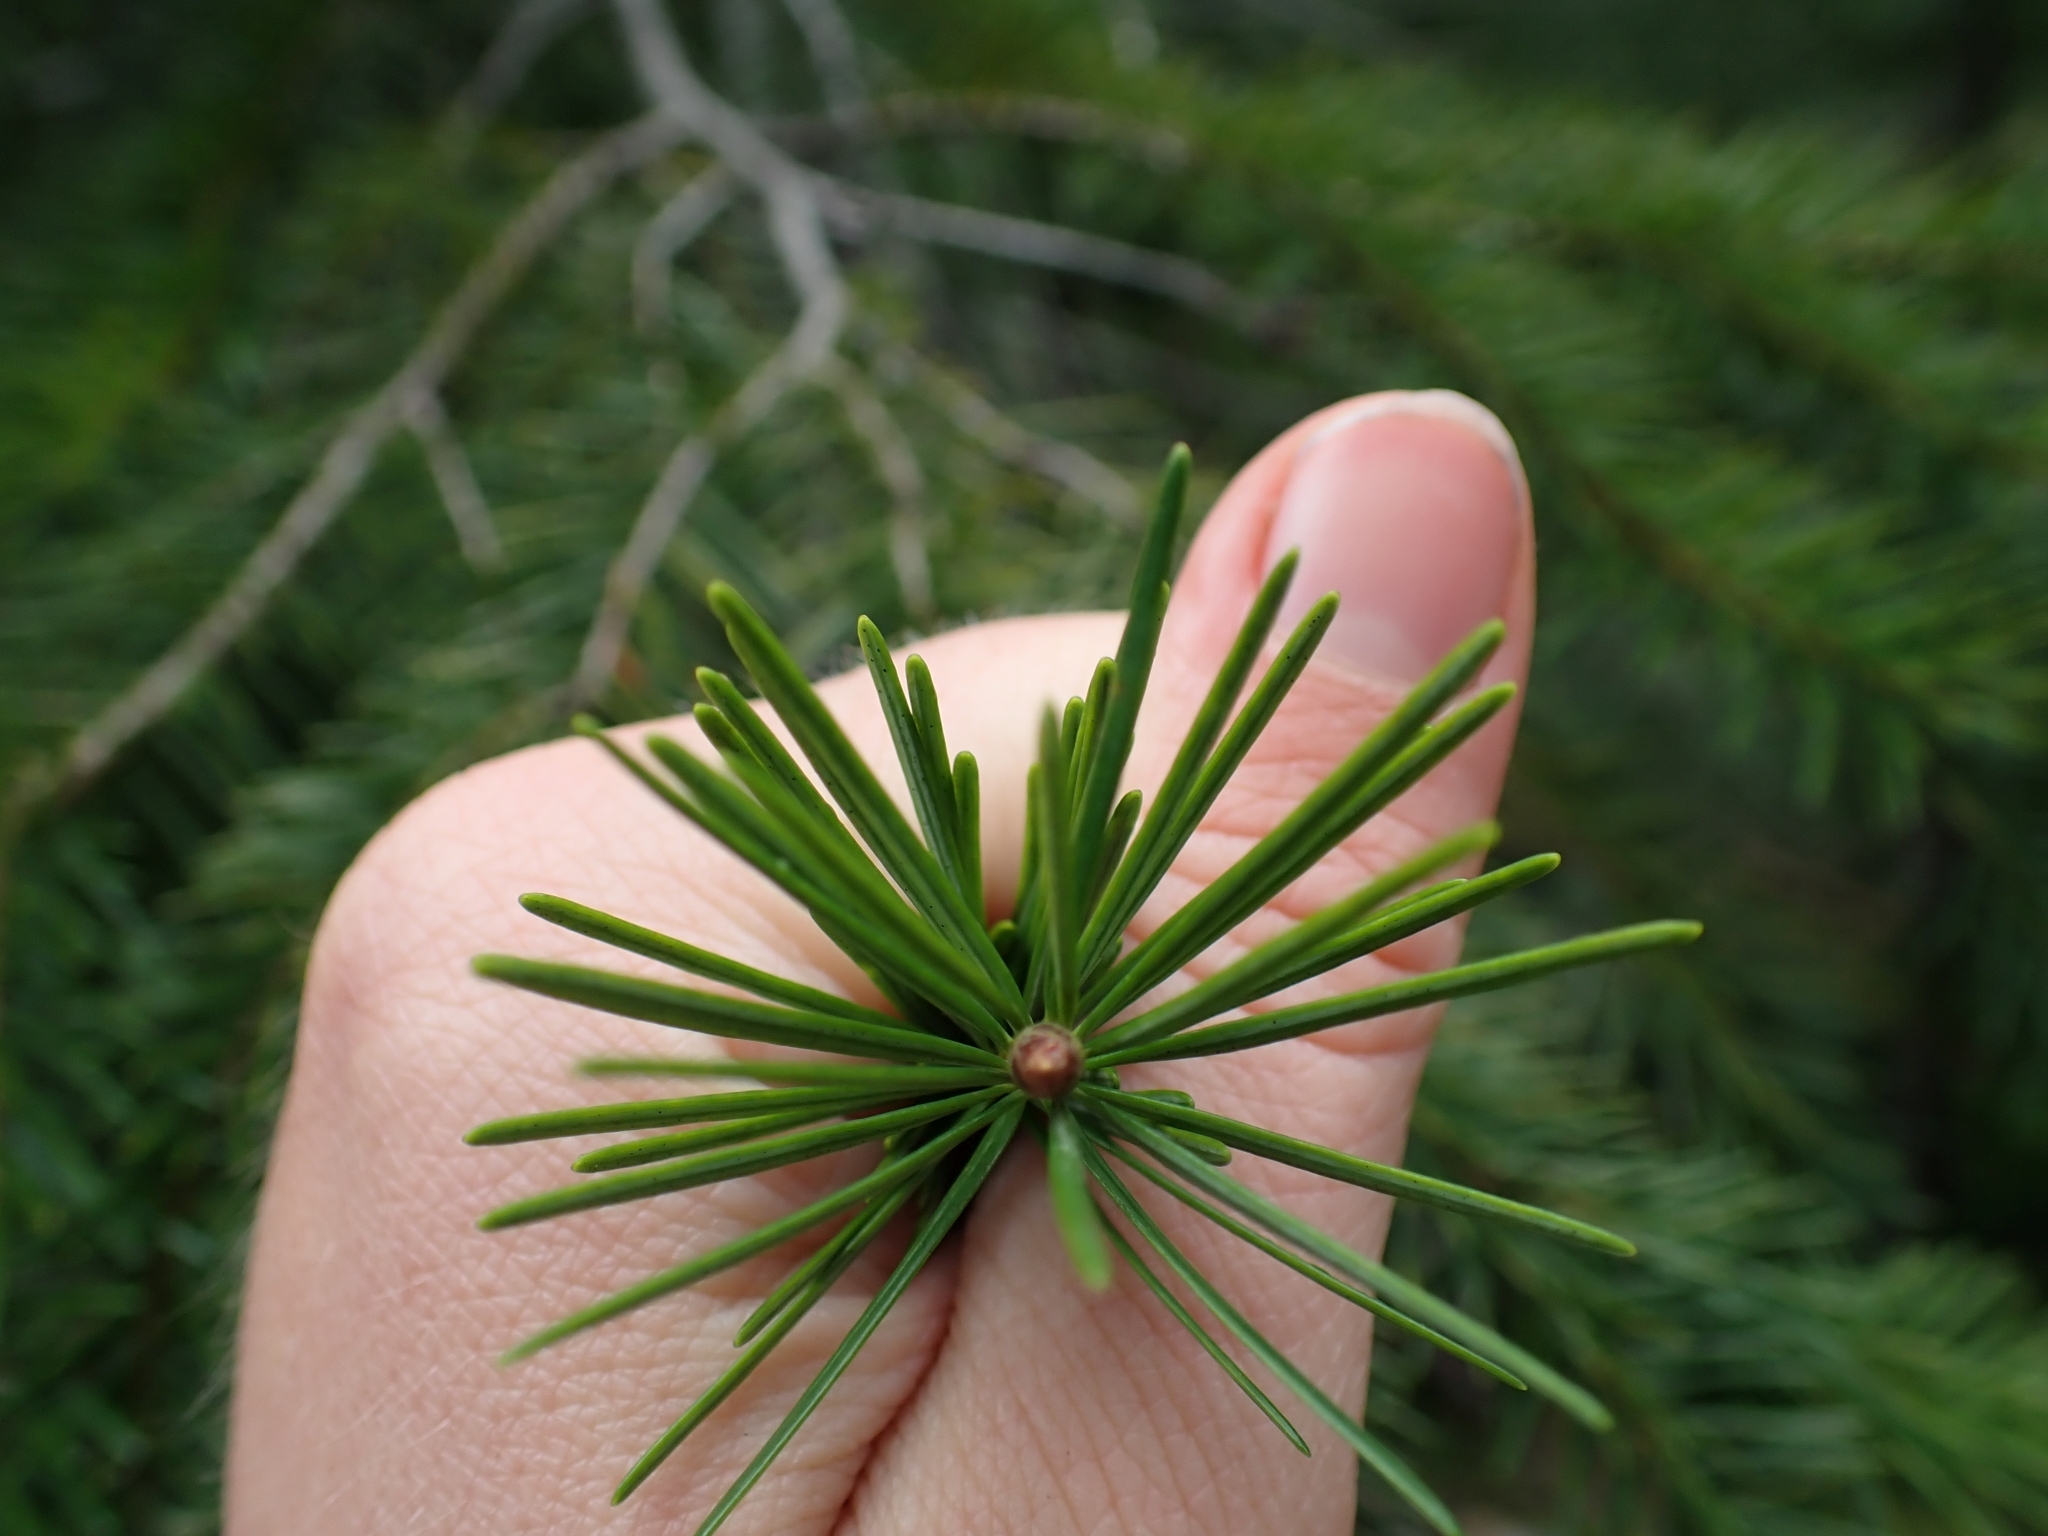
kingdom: Plantae
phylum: Tracheophyta
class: Pinopsida
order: Pinales
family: Pinaceae
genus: Pseudotsuga
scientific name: Pseudotsuga menziesii
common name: Douglas fir
